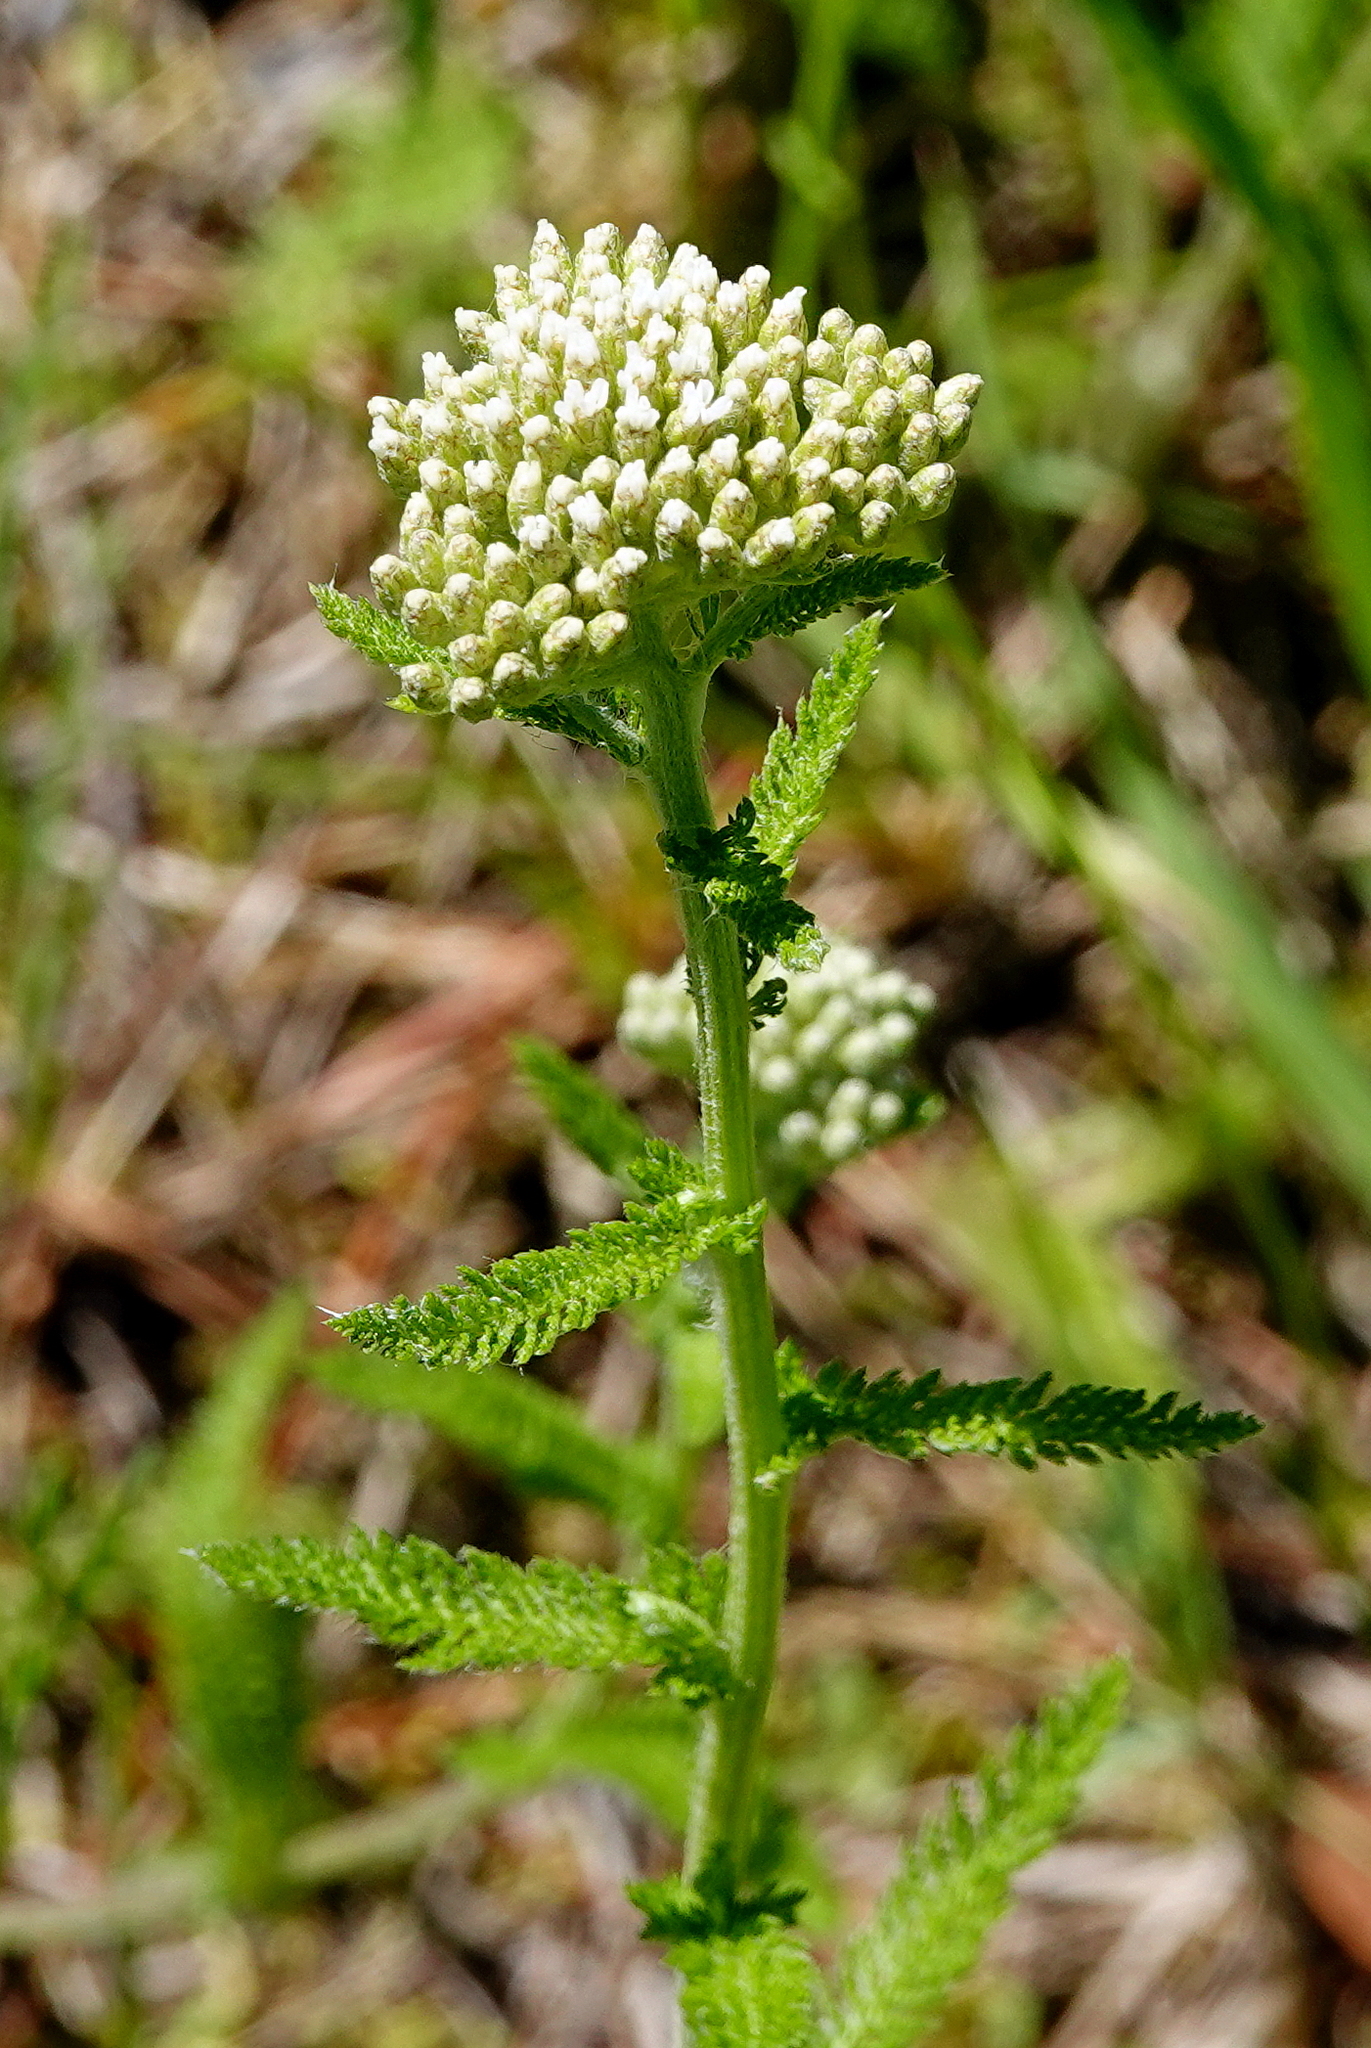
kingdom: Plantae
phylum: Tracheophyta
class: Magnoliopsida
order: Asterales
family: Asteraceae
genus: Achillea
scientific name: Achillea millefolium
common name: Yarrow
